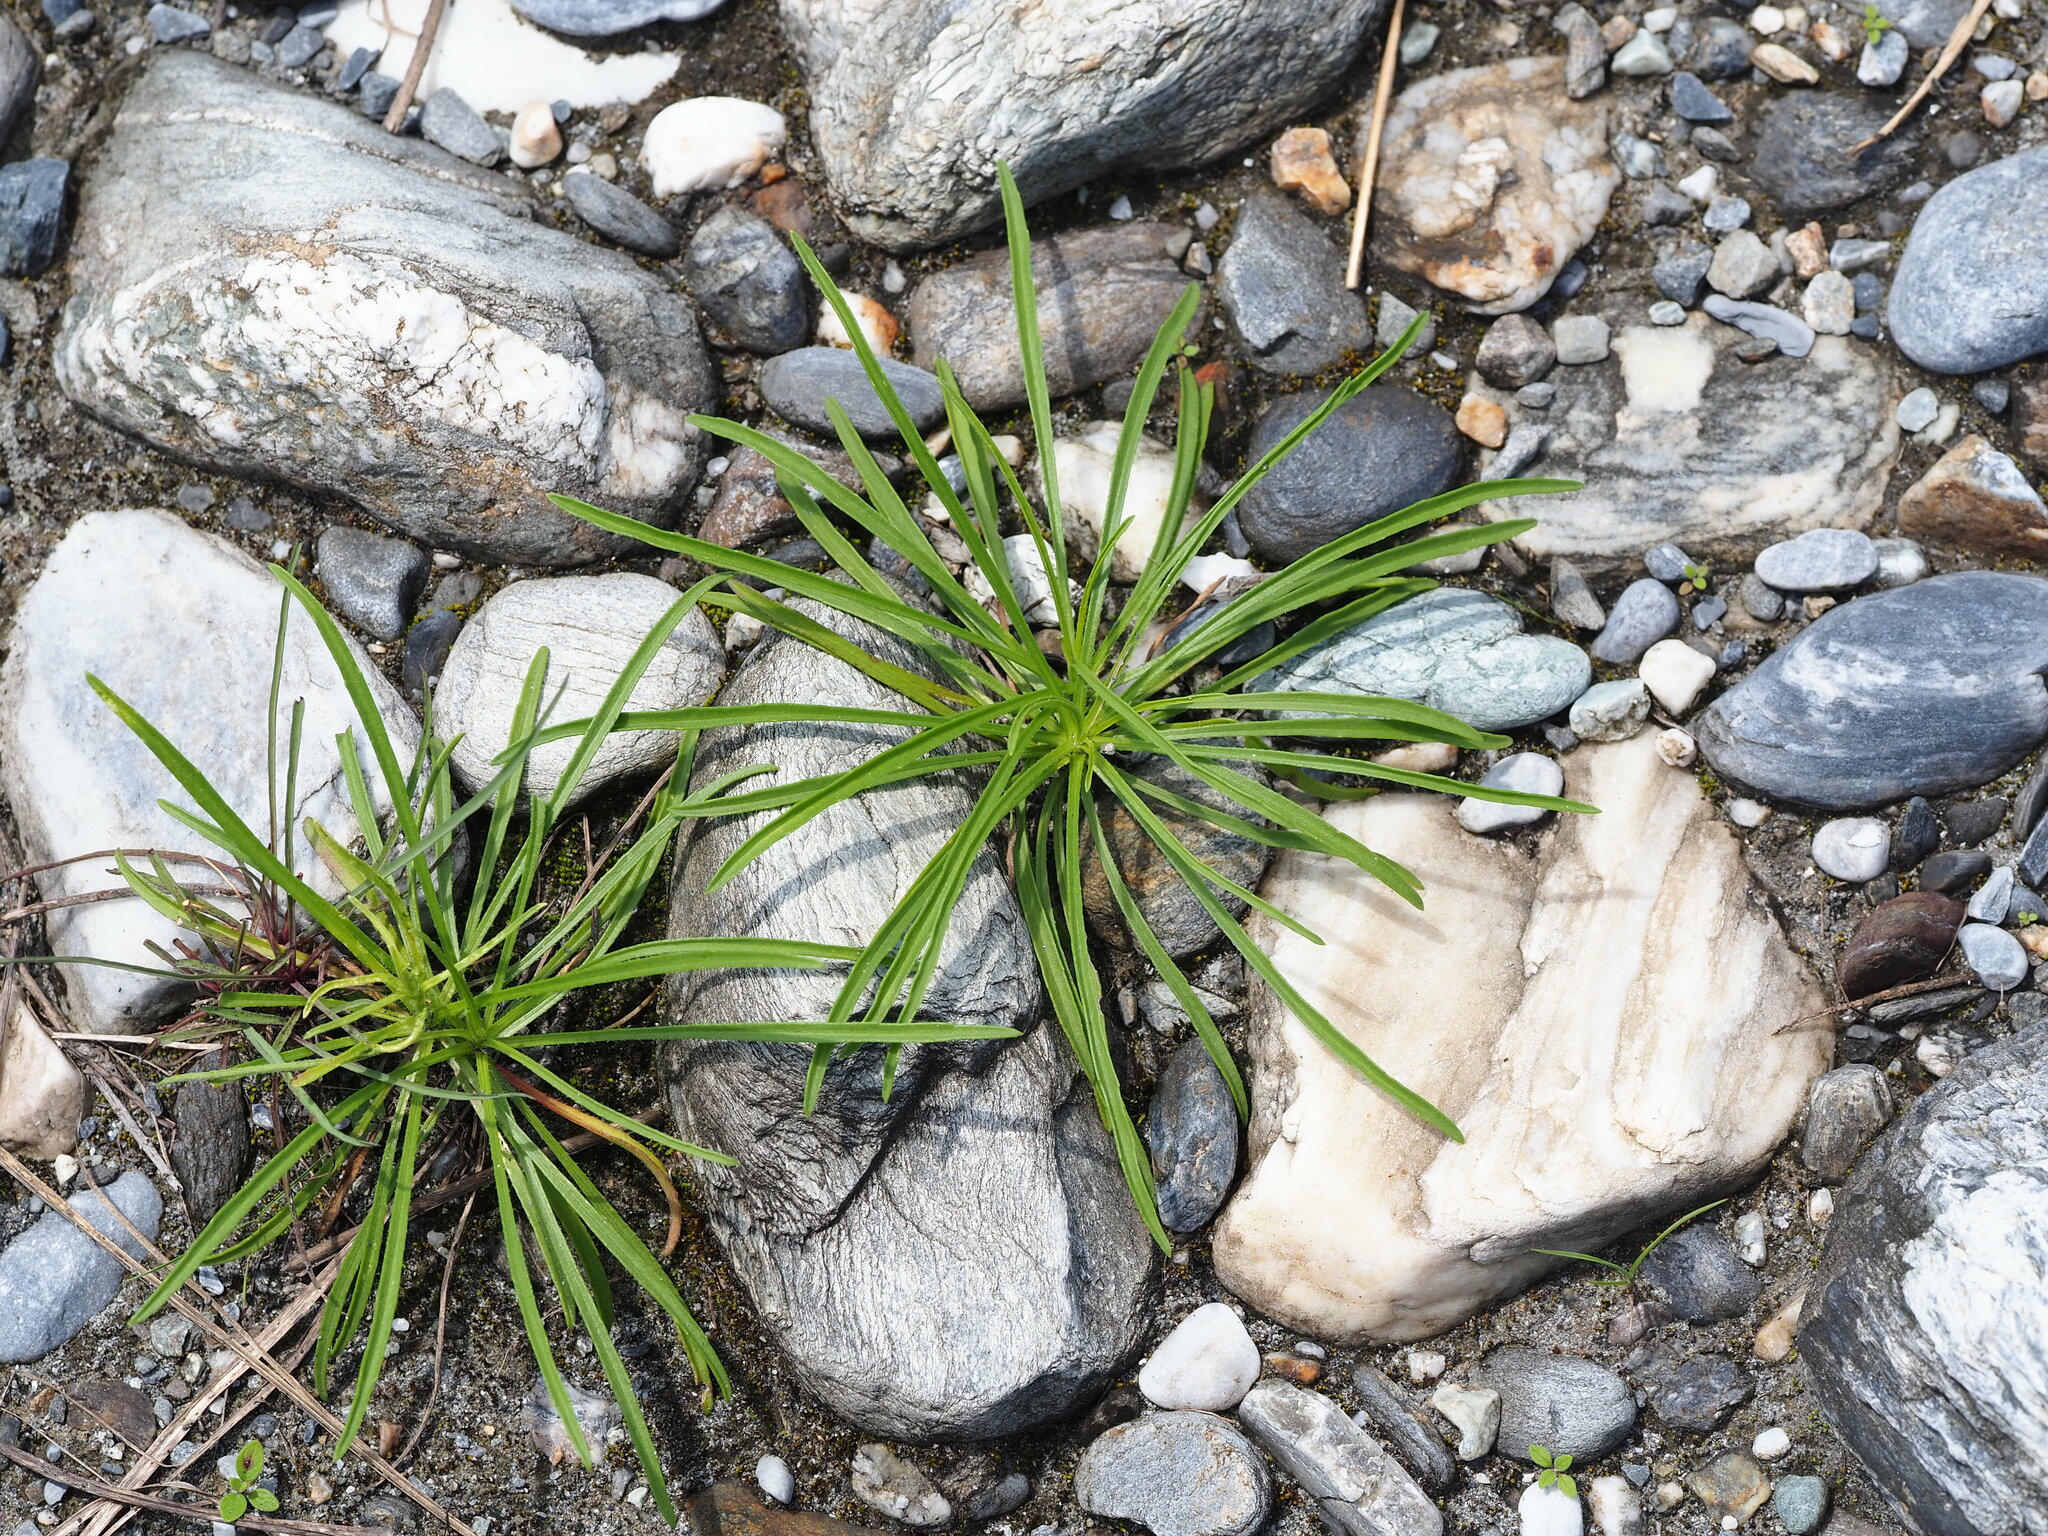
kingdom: Plantae
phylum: Tracheophyta
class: Magnoliopsida
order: Asterales
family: Asteraceae
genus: Heteropappus
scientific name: Heteropappus altaicus
